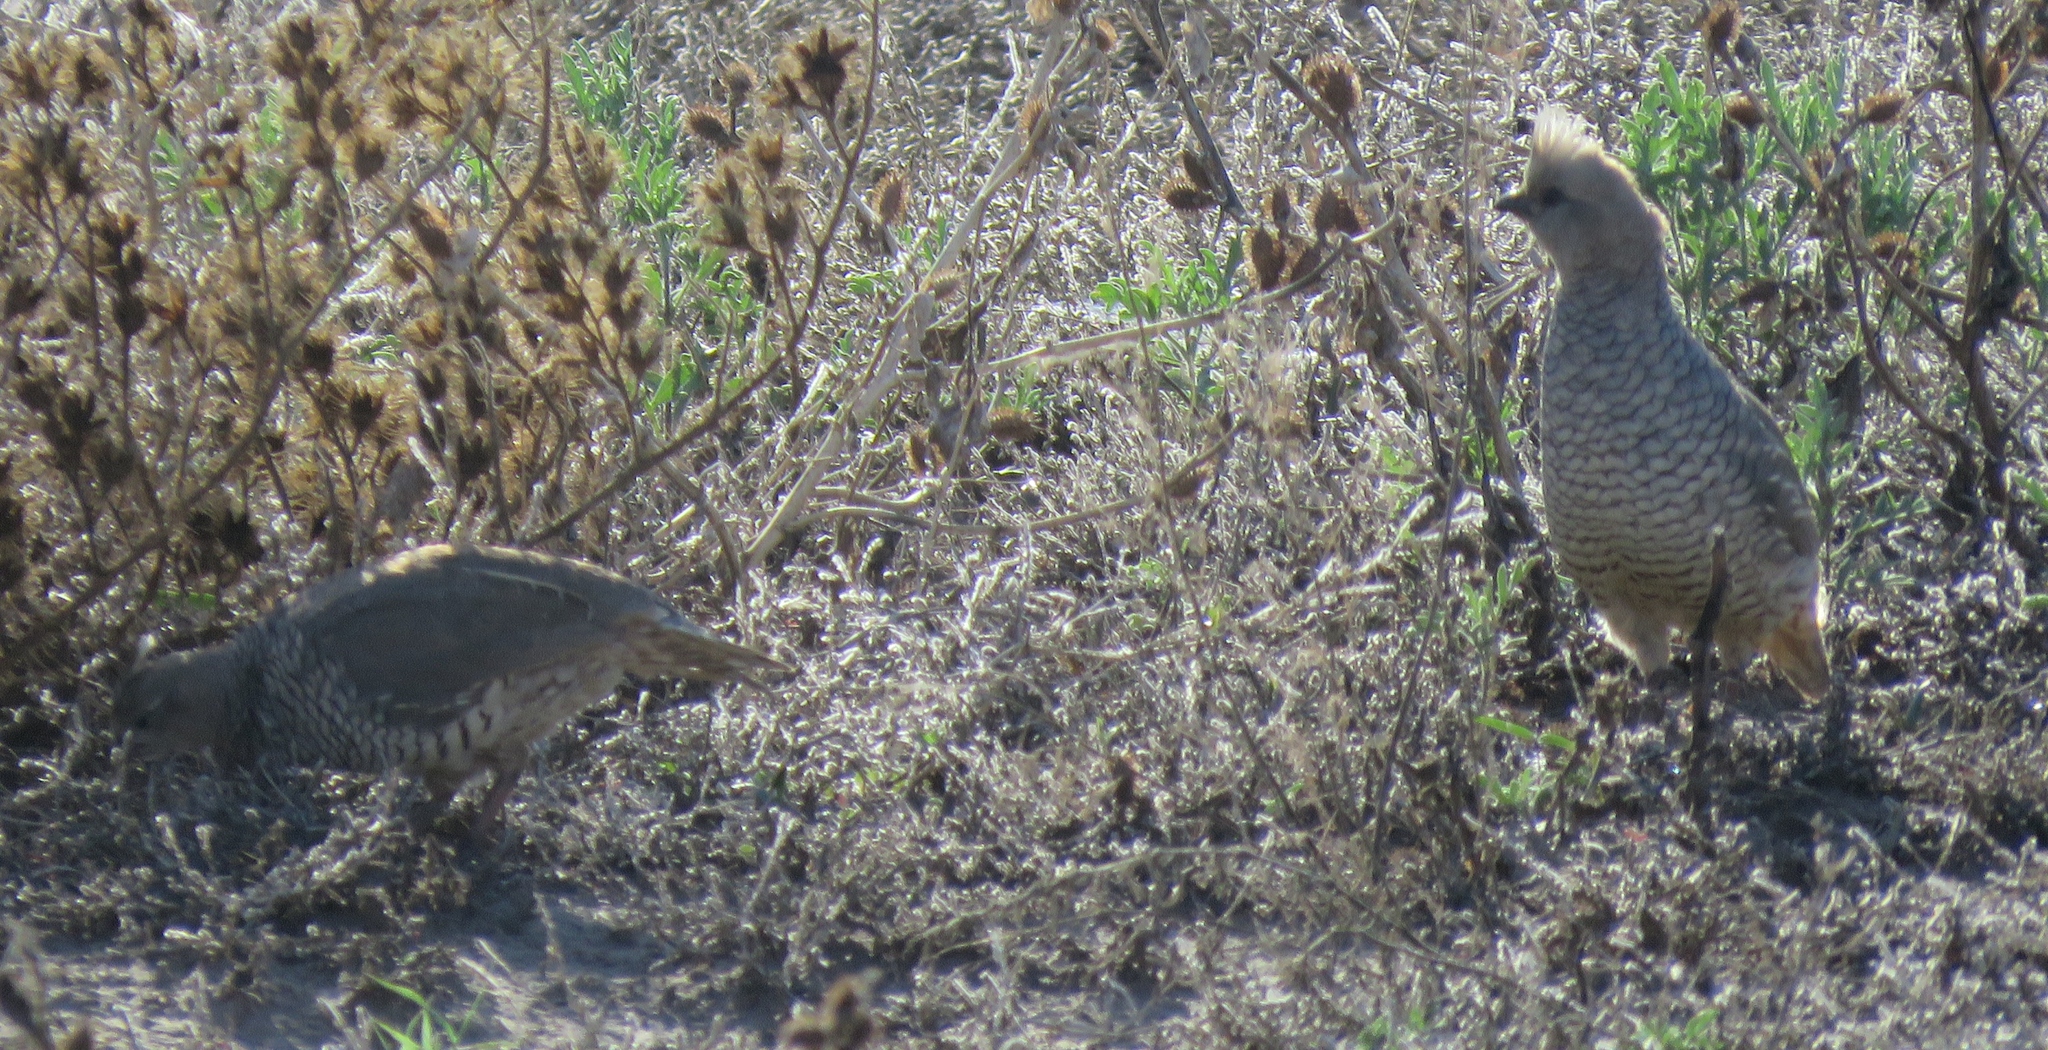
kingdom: Animalia
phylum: Chordata
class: Aves
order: Galliformes
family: Odontophoridae
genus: Callipepla
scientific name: Callipepla squamata
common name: Scaled quail
